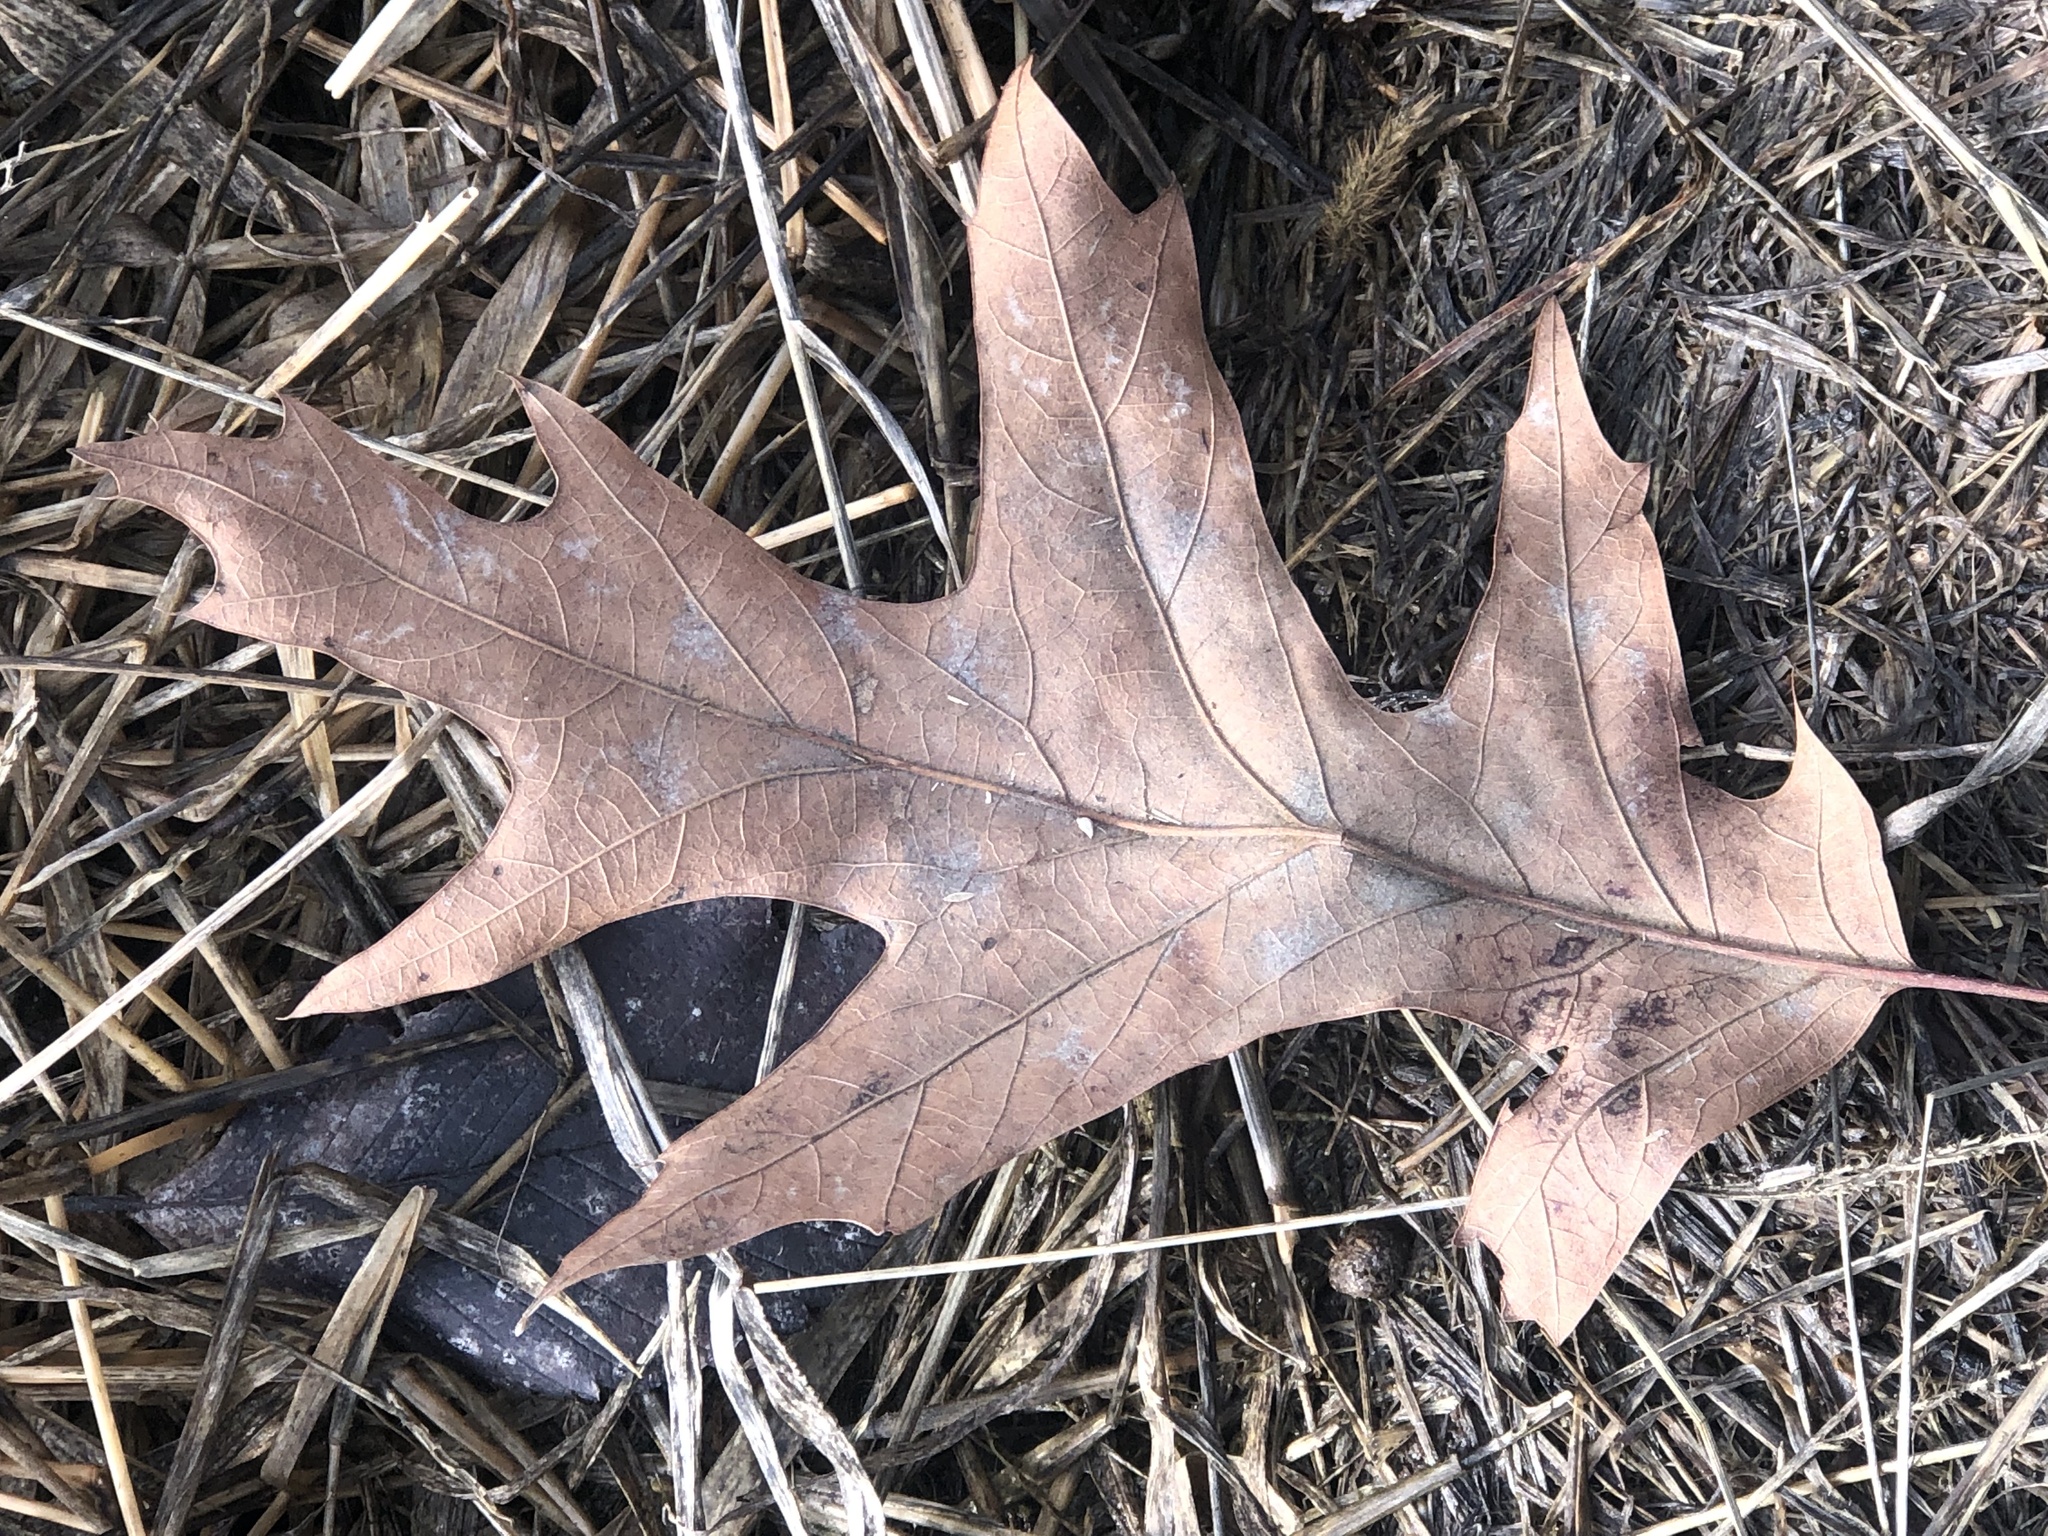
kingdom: Plantae
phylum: Tracheophyta
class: Magnoliopsida
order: Fagales
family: Fagaceae
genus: Quercus
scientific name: Quercus pagoda
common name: Cherrybark oak
